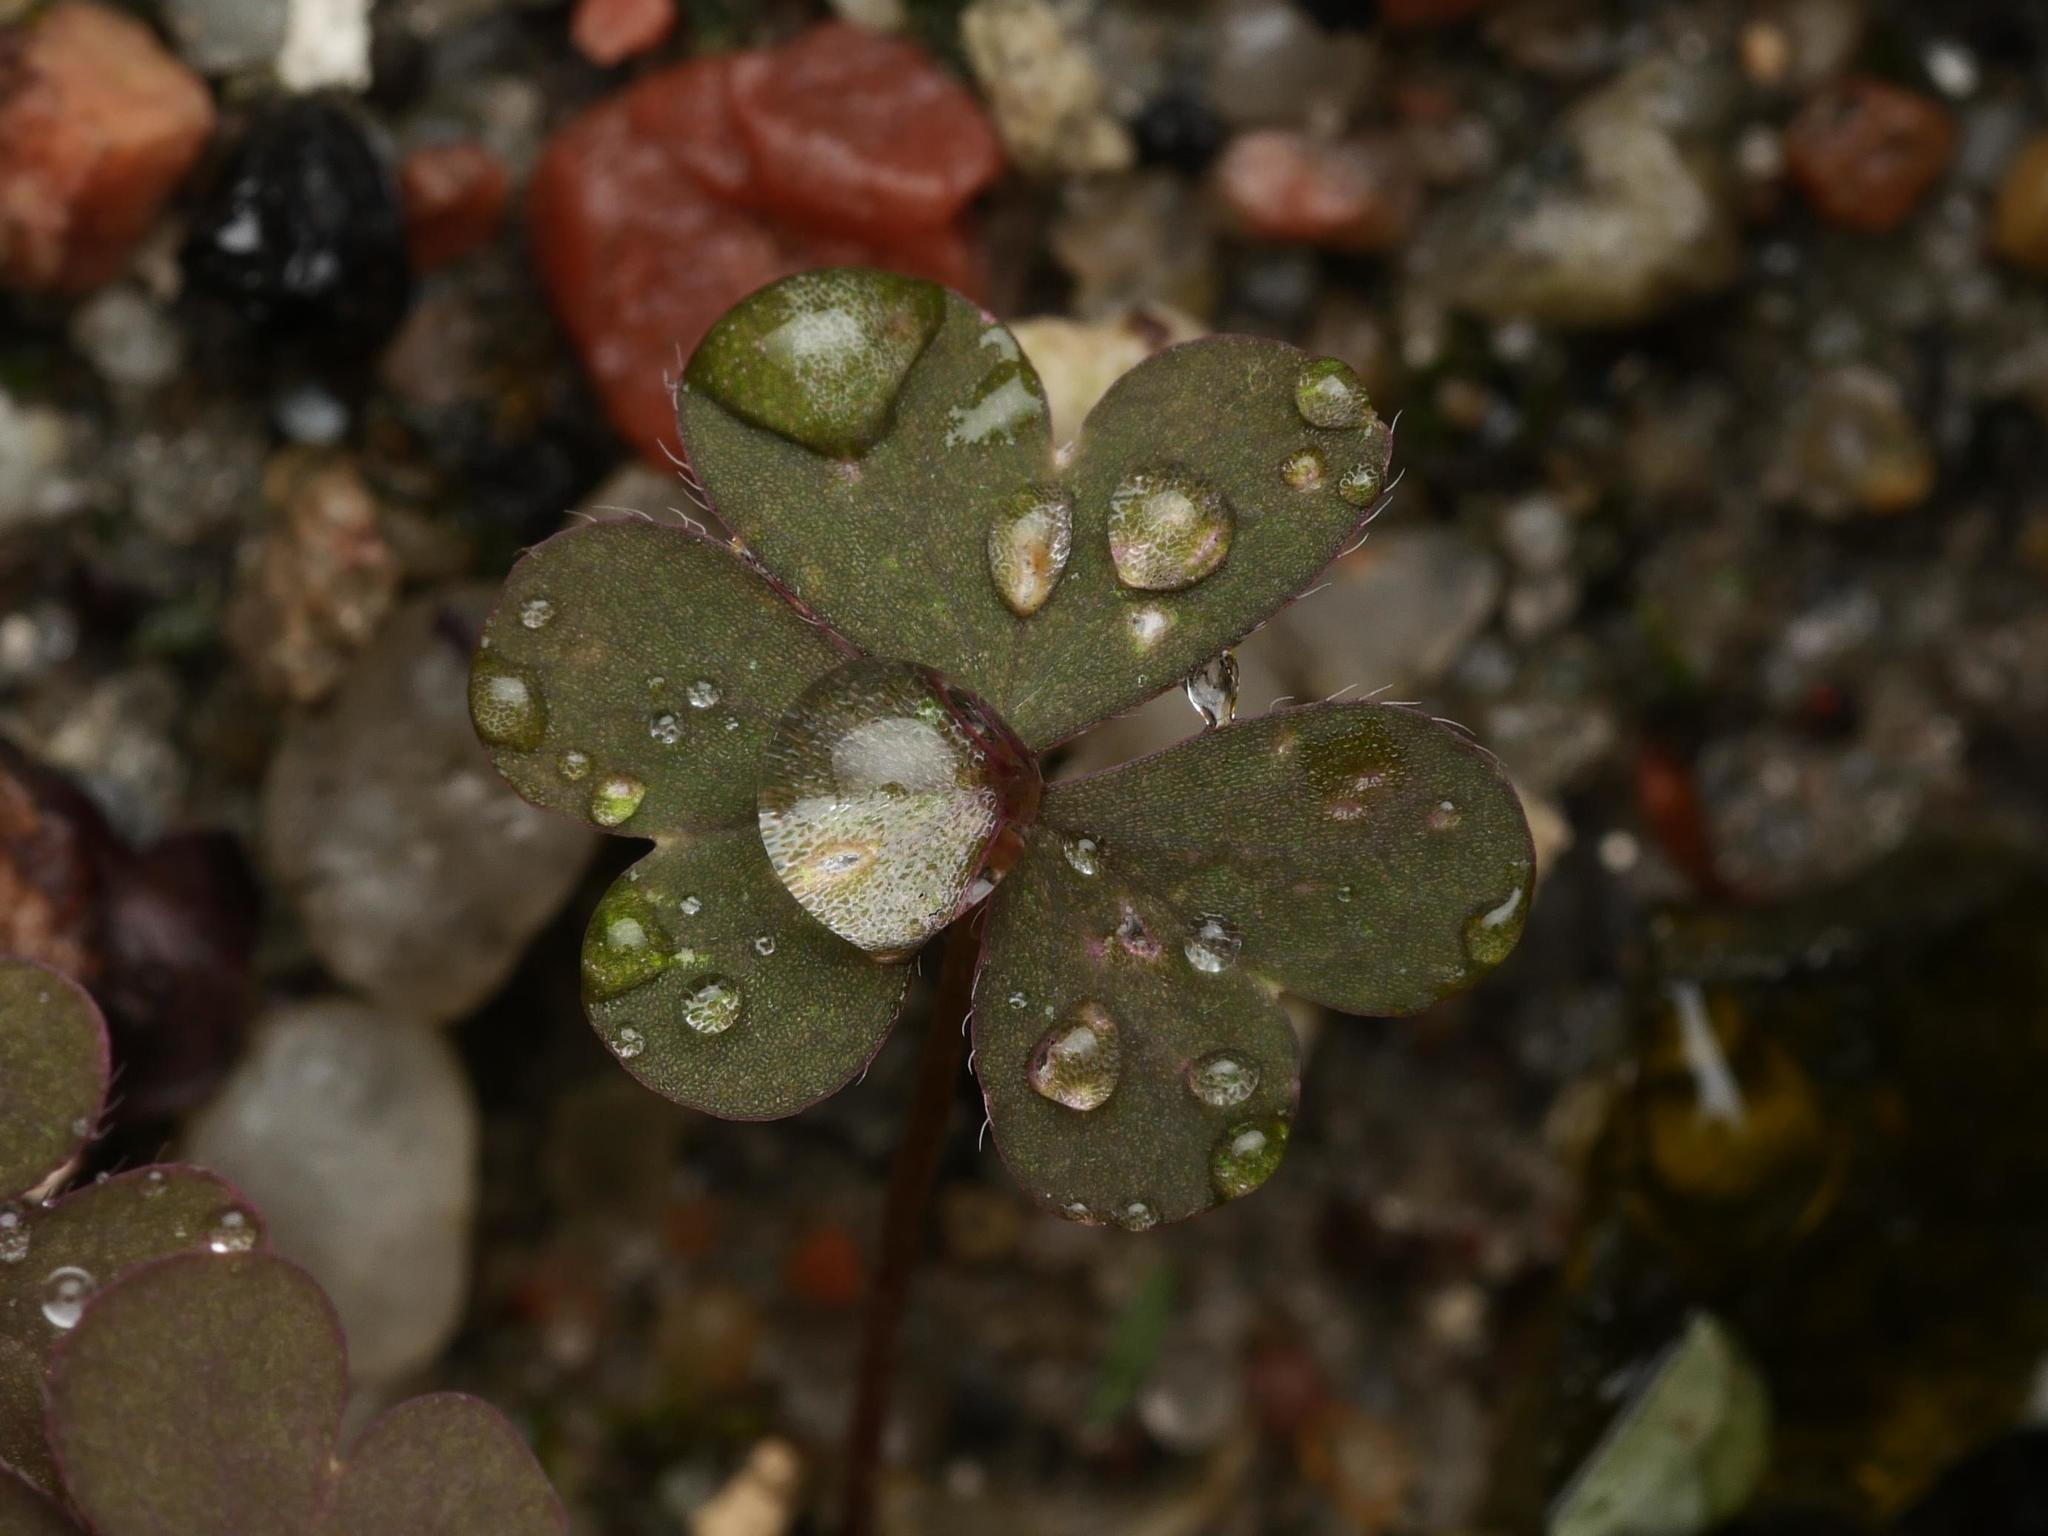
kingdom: Plantae
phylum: Tracheophyta
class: Magnoliopsida
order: Oxalidales
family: Oxalidaceae
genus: Oxalis
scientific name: Oxalis corniculata
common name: Procumbent yellow-sorrel
